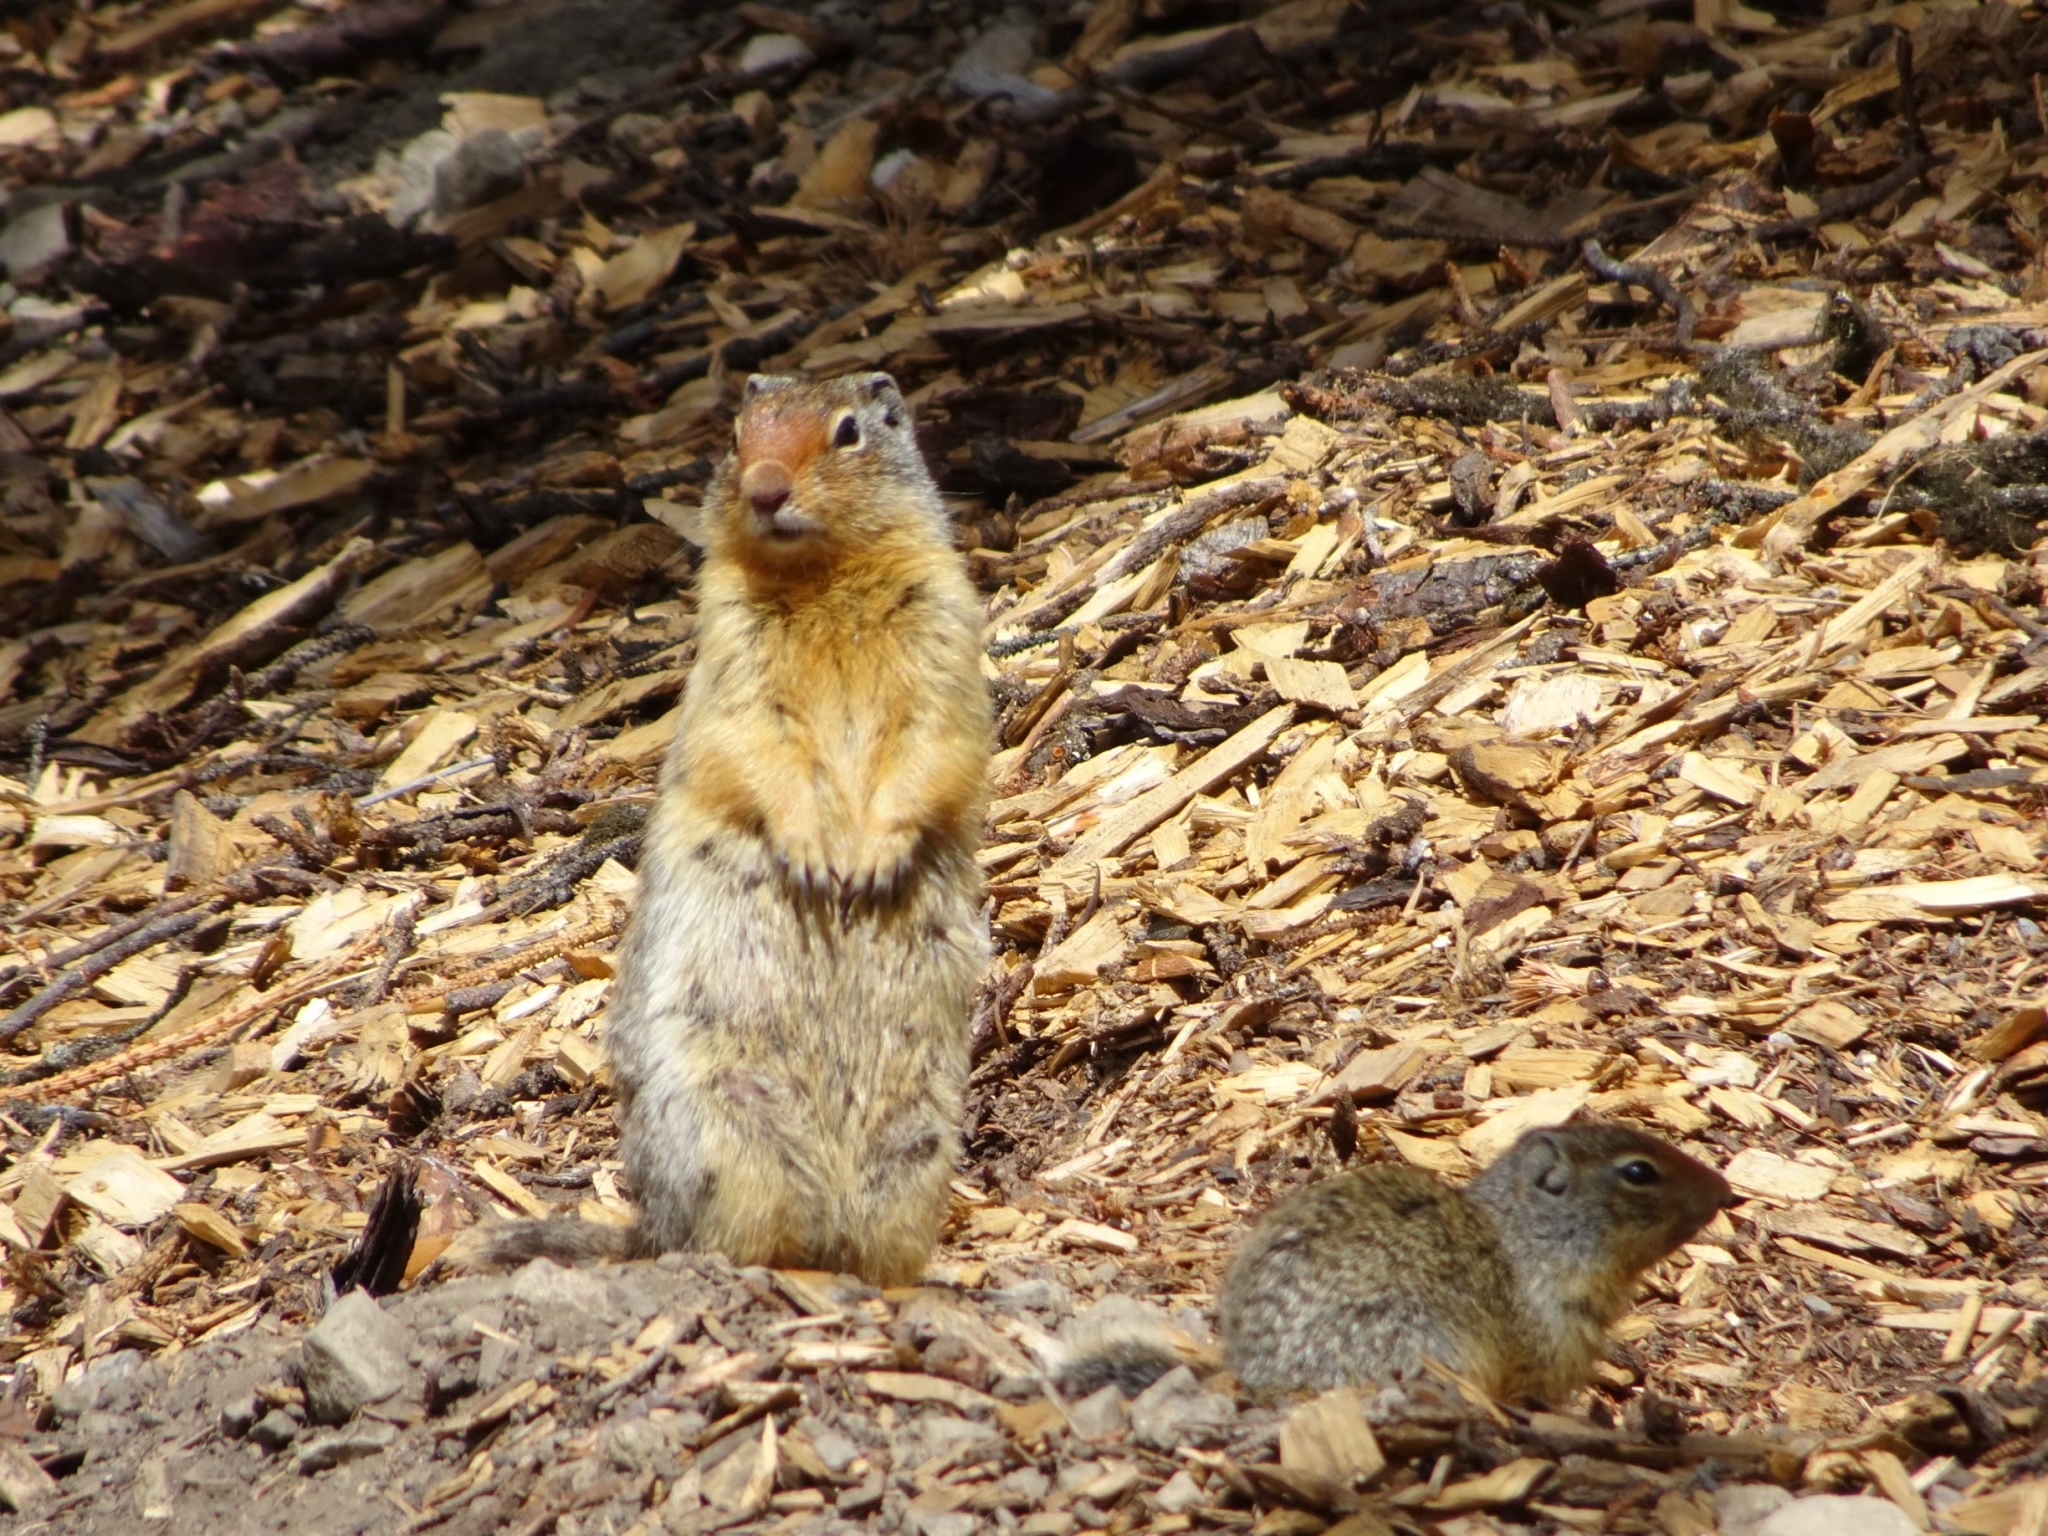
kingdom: Animalia
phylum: Chordata
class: Mammalia
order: Rodentia
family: Sciuridae
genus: Urocitellus
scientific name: Urocitellus columbianus
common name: Columbian ground squirrel
